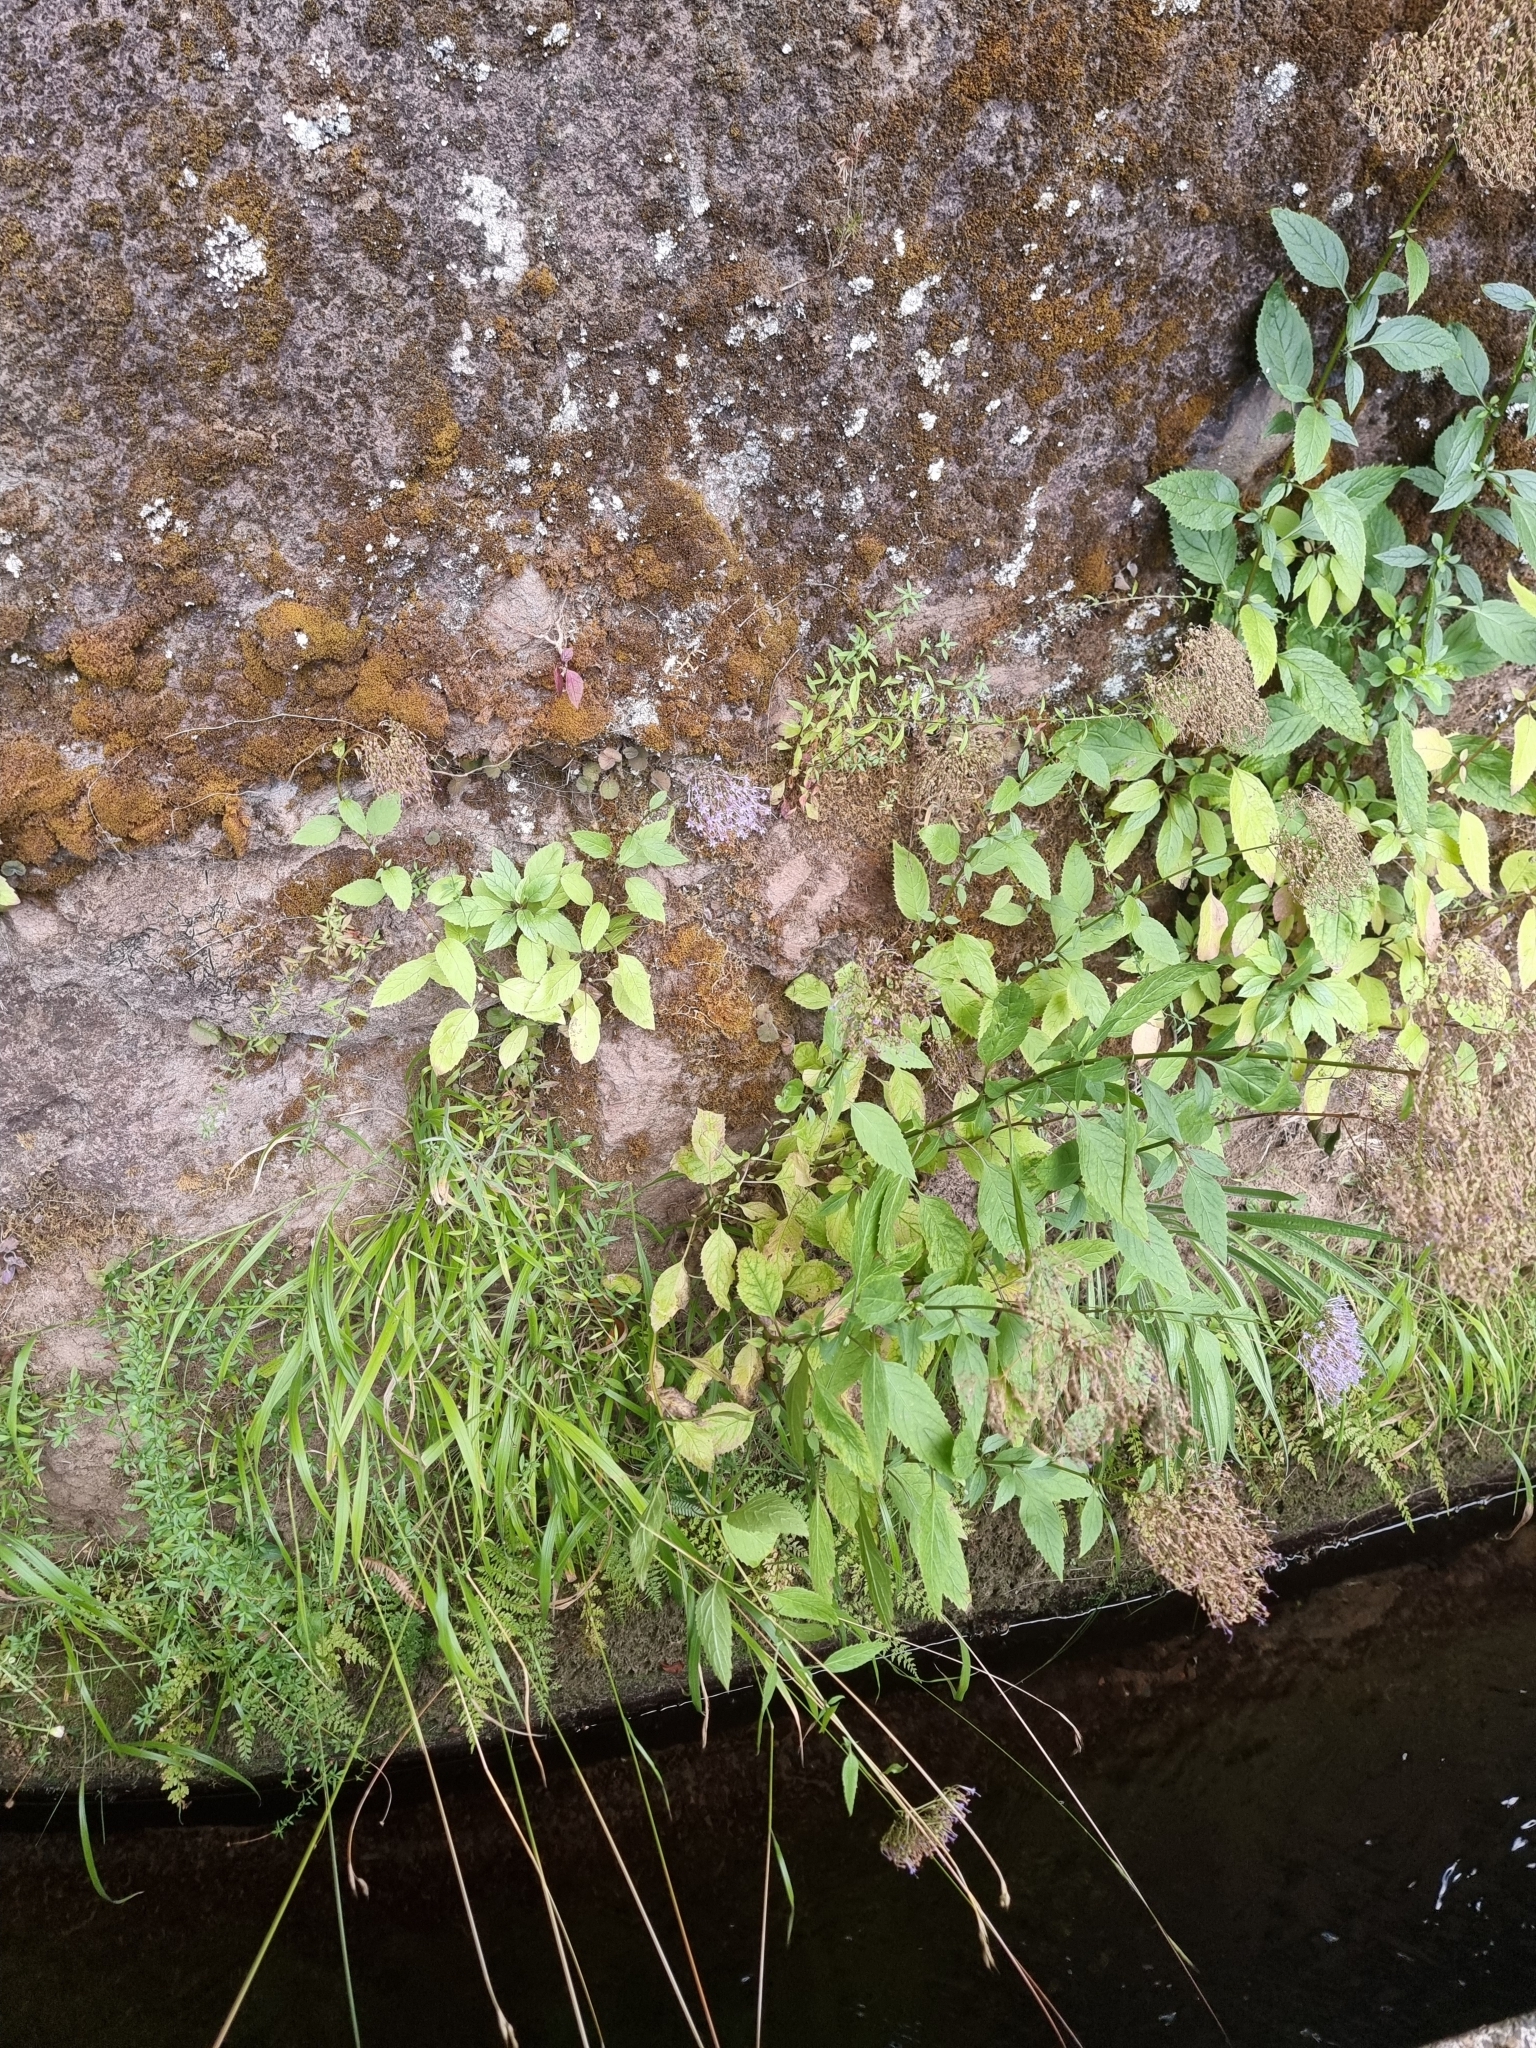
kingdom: Plantae
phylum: Tracheophyta
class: Magnoliopsida
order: Asterales
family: Campanulaceae
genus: Trachelium
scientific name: Trachelium caeruleum
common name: Throatwort
